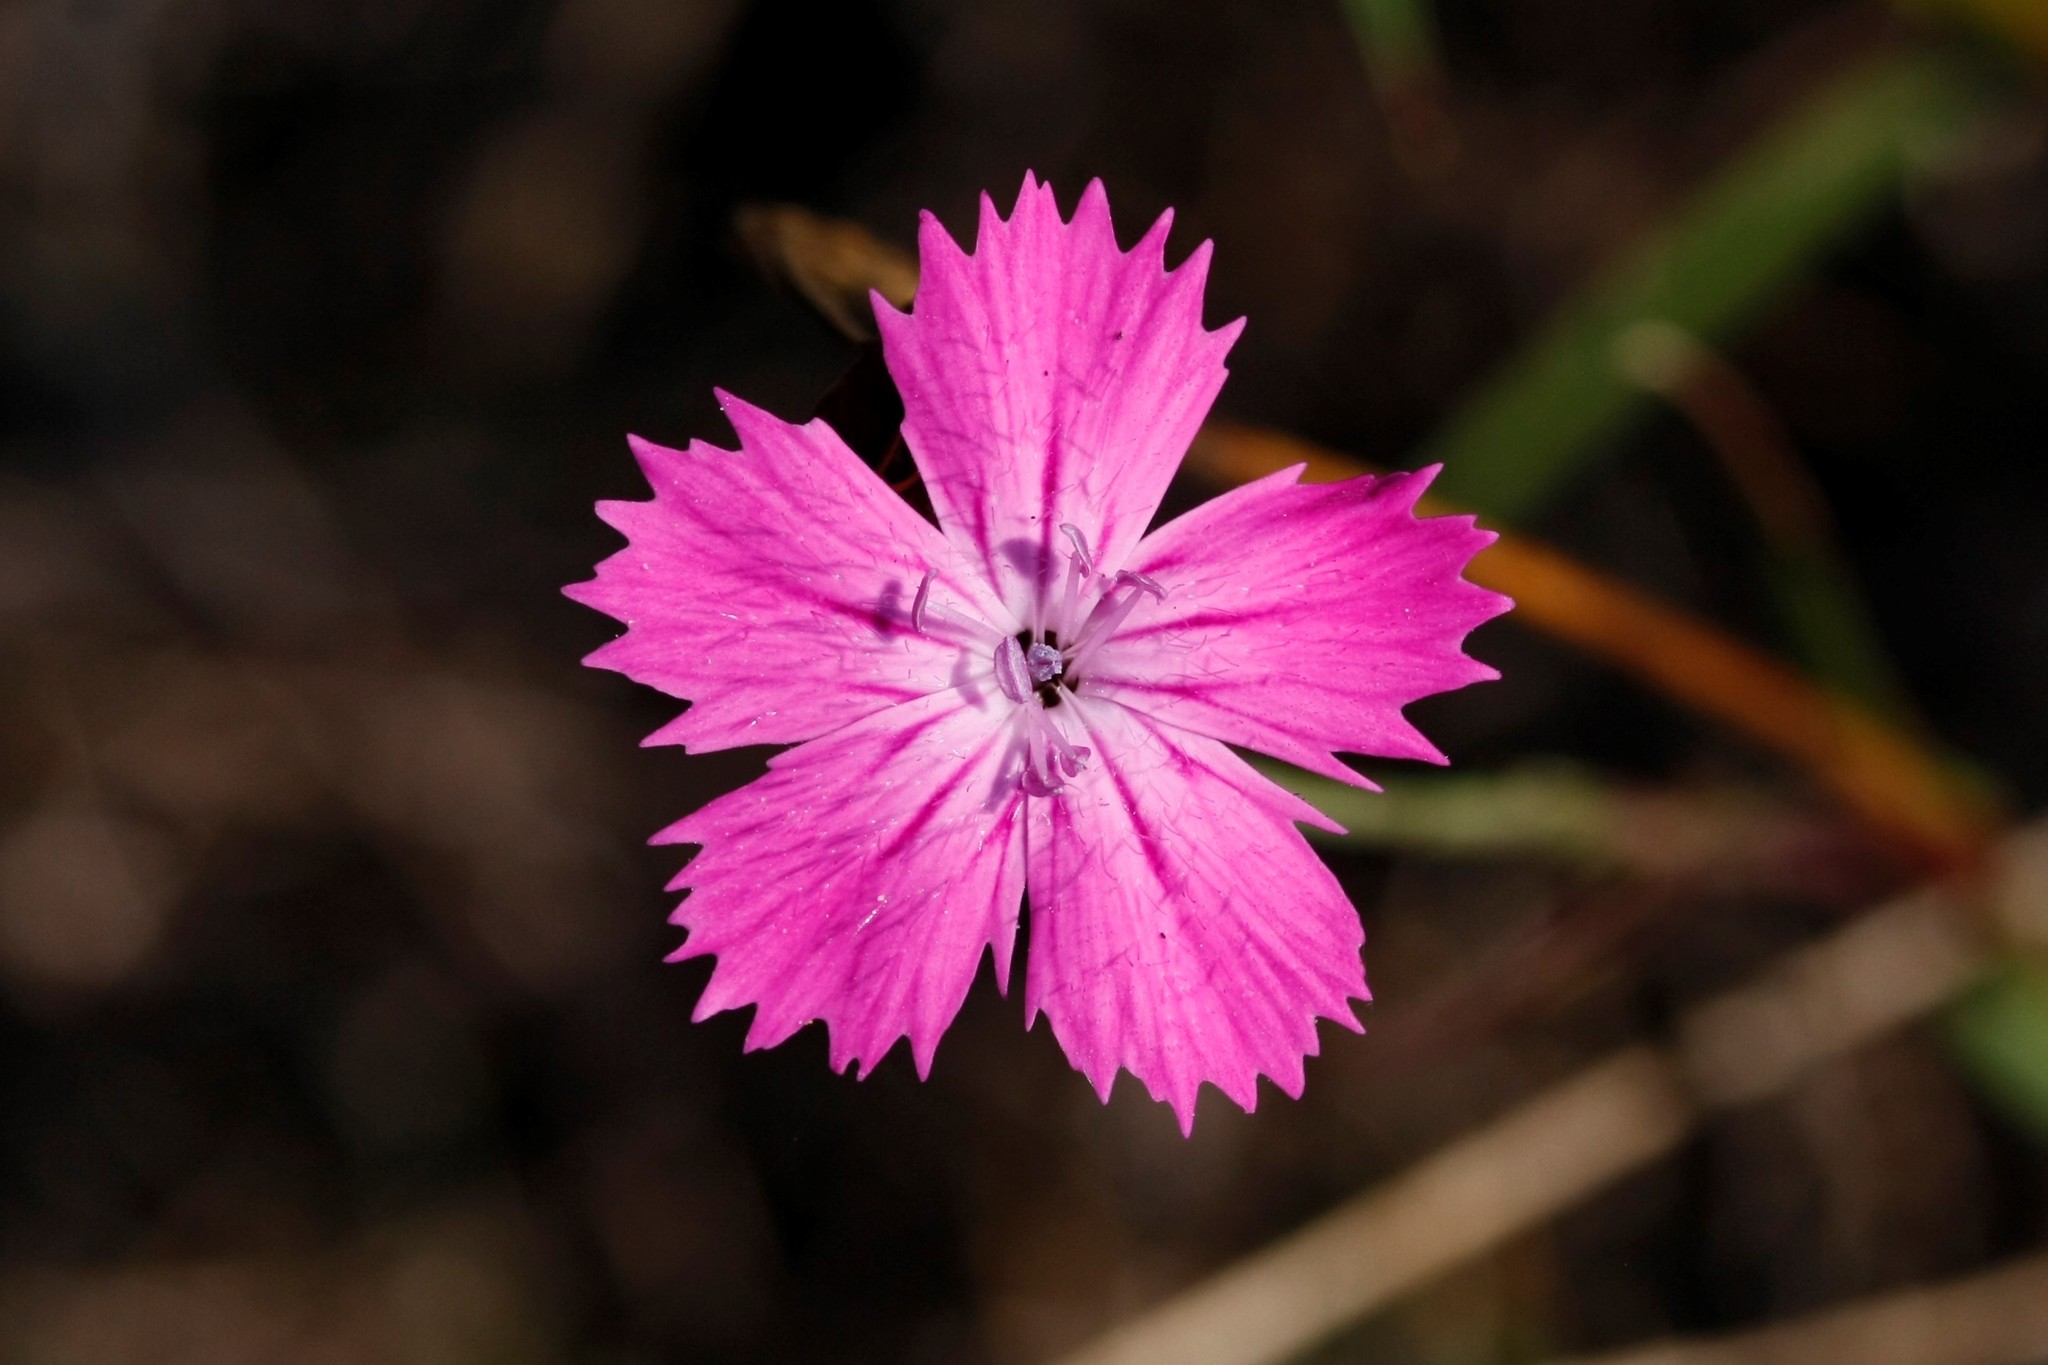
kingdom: Plantae
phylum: Tracheophyta
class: Magnoliopsida
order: Caryophyllales
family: Caryophyllaceae
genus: Dianthus
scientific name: Dianthus carthusianorum
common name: Carthusian pink
